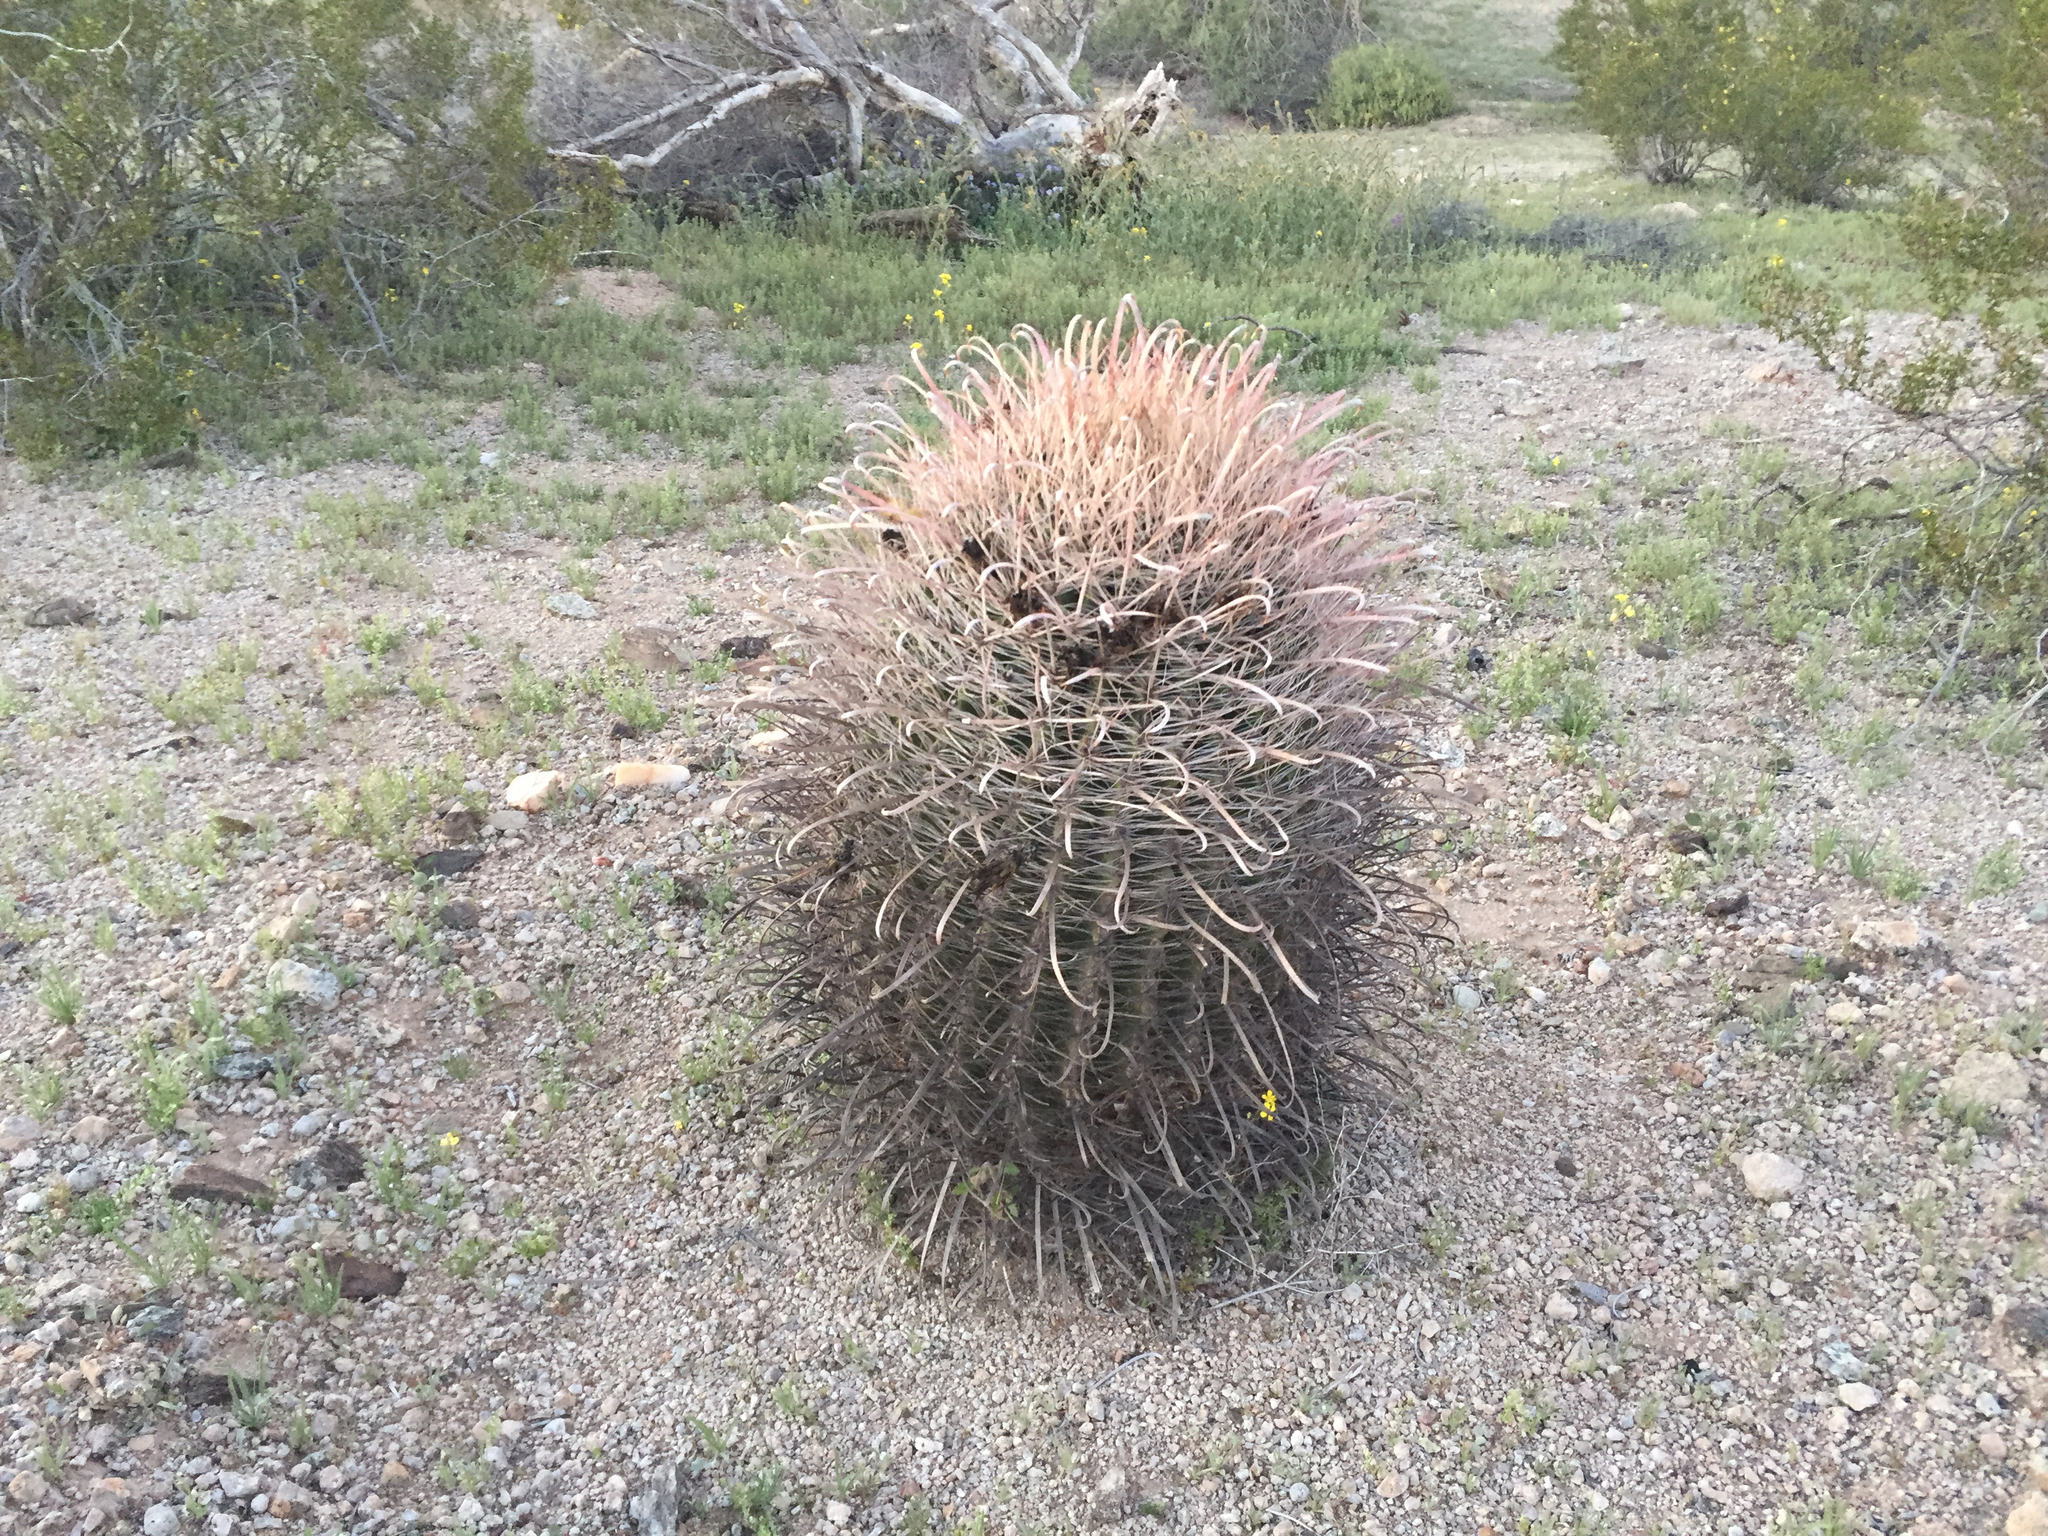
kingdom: Plantae
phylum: Tracheophyta
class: Magnoliopsida
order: Caryophyllales
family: Cactaceae
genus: Ferocactus
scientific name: Ferocactus cylindraceus
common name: California barrel cactus
